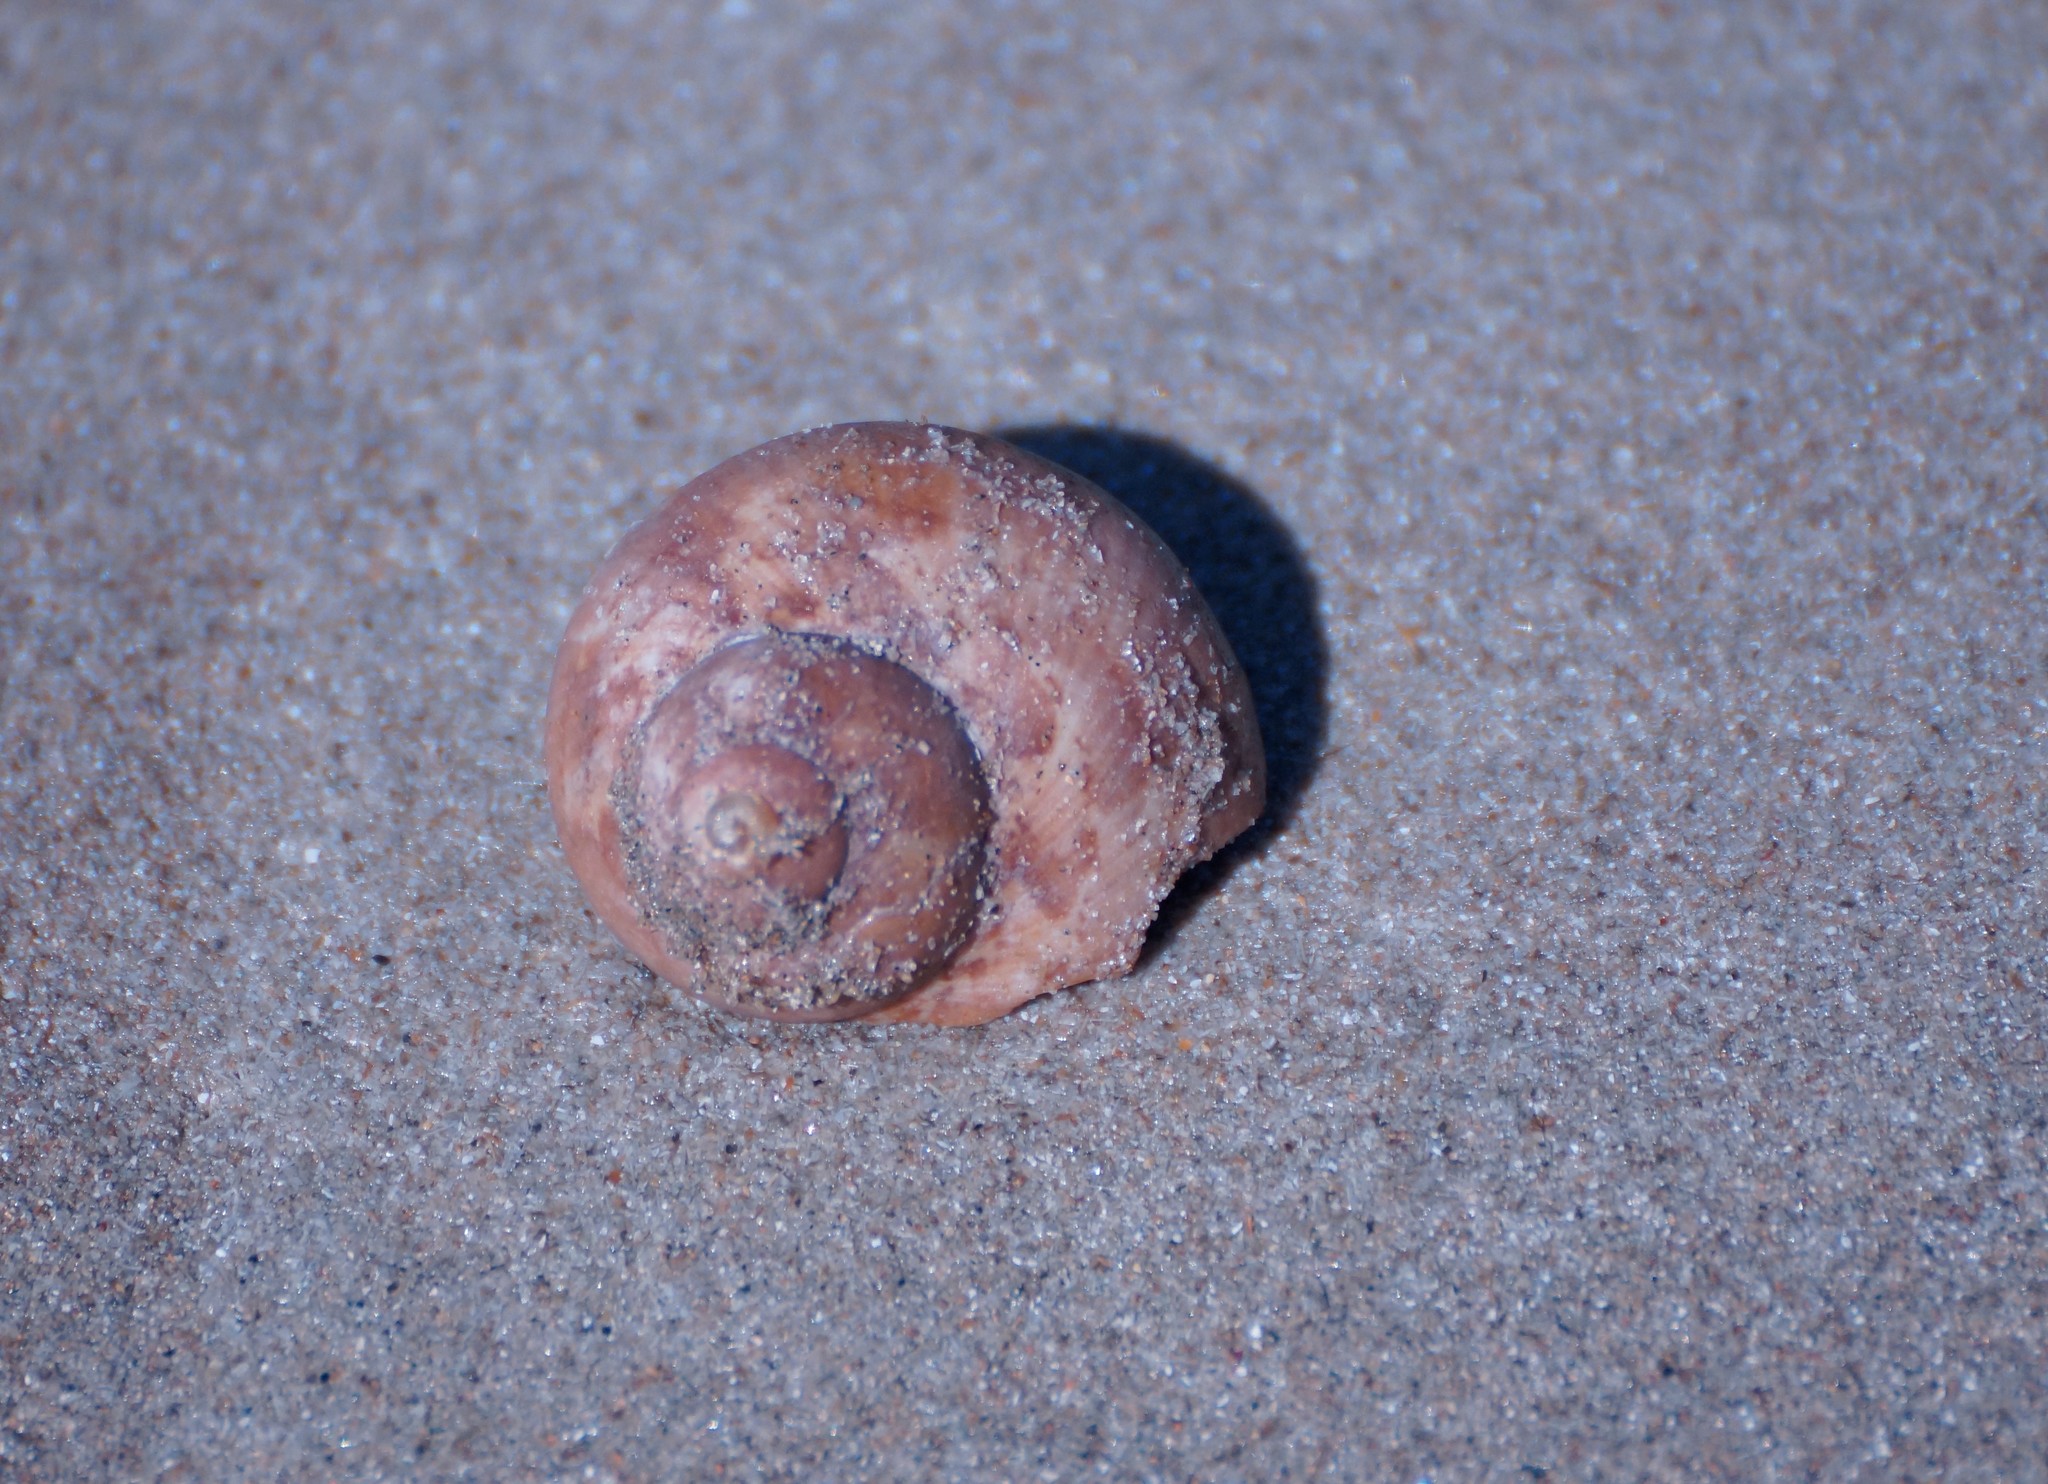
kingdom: Animalia
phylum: Mollusca
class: Gastropoda
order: Trochida
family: Turbinidae
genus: Turbo
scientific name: Turbo walteri
